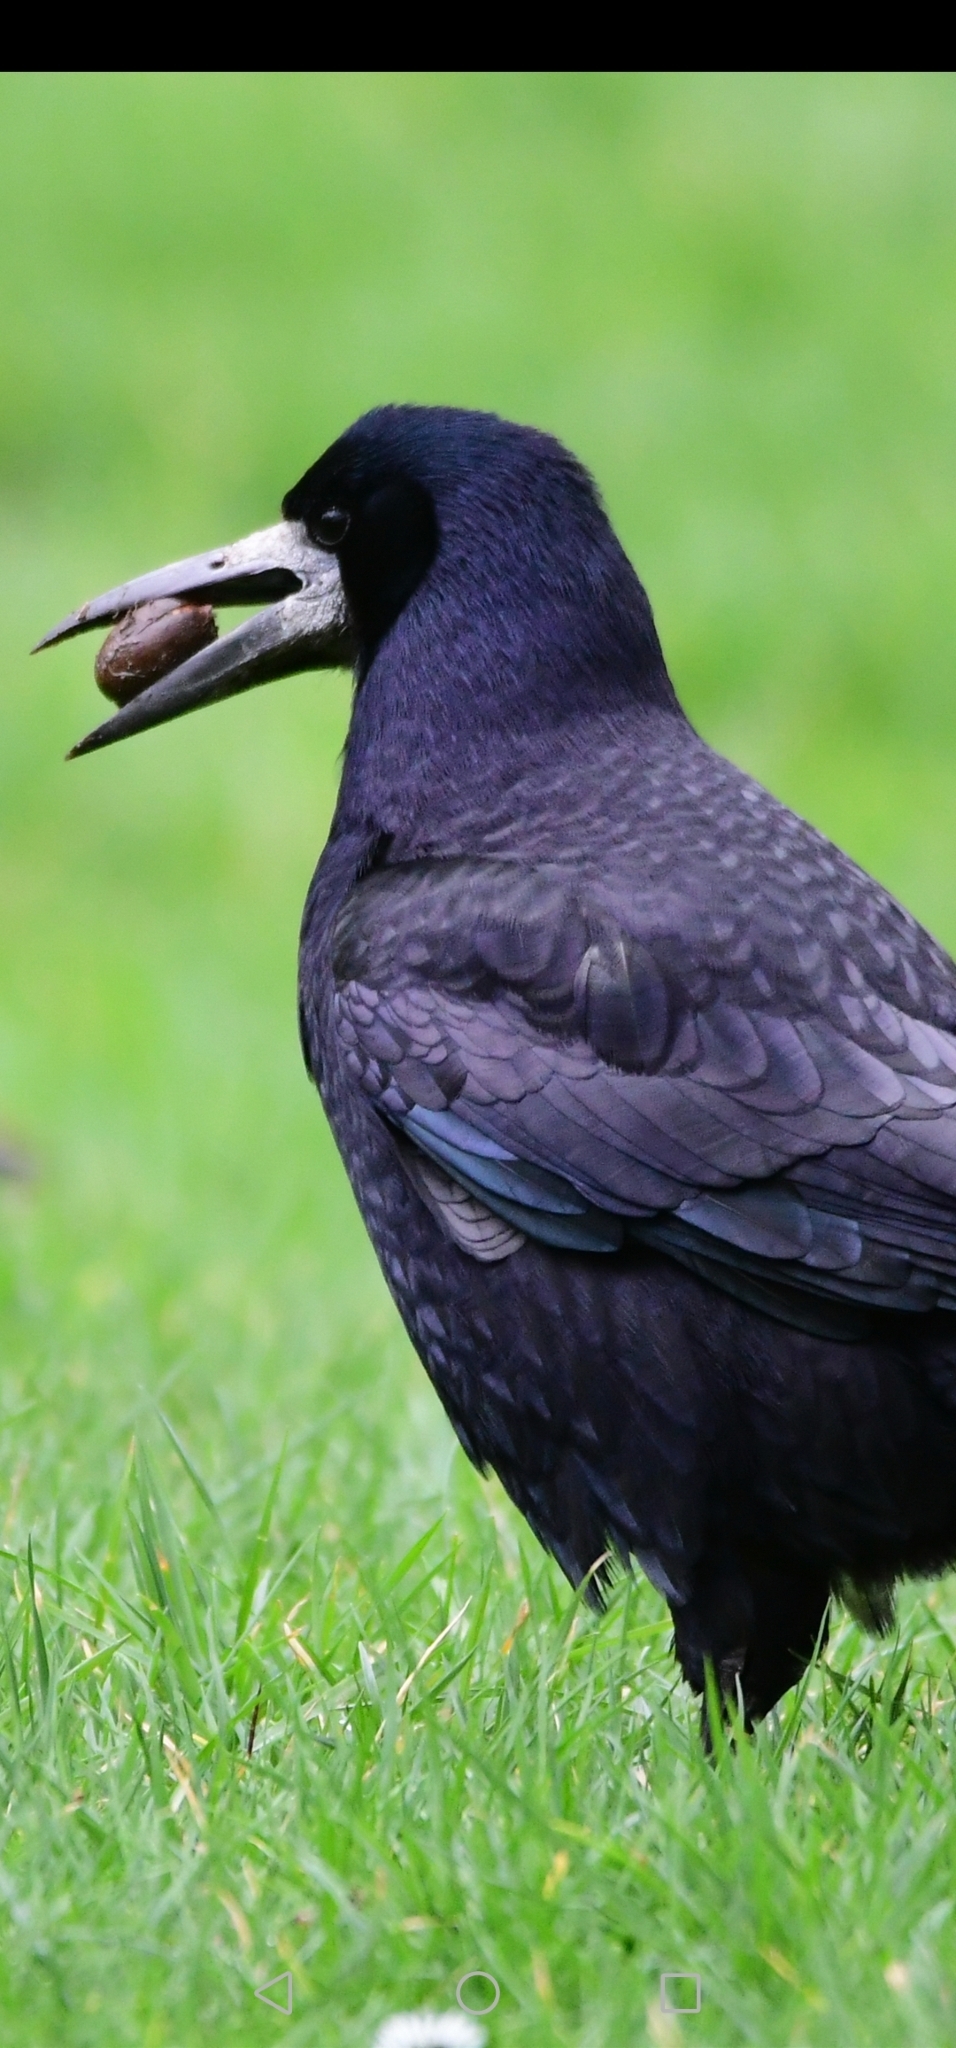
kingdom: Animalia
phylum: Chordata
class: Aves
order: Passeriformes
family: Corvidae
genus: Corvus
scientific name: Corvus frugilegus
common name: Rook
